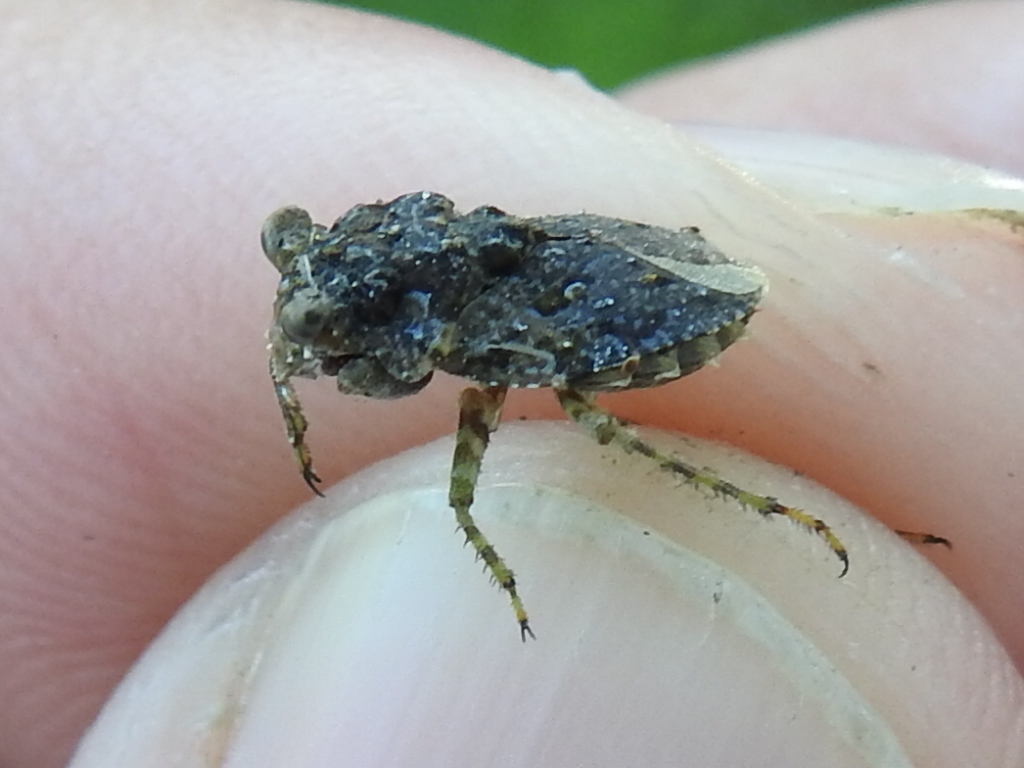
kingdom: Animalia
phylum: Arthropoda
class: Insecta
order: Hemiptera
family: Gelastocoridae
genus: Gelastocoris
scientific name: Gelastocoris oculatus
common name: Toad bug
